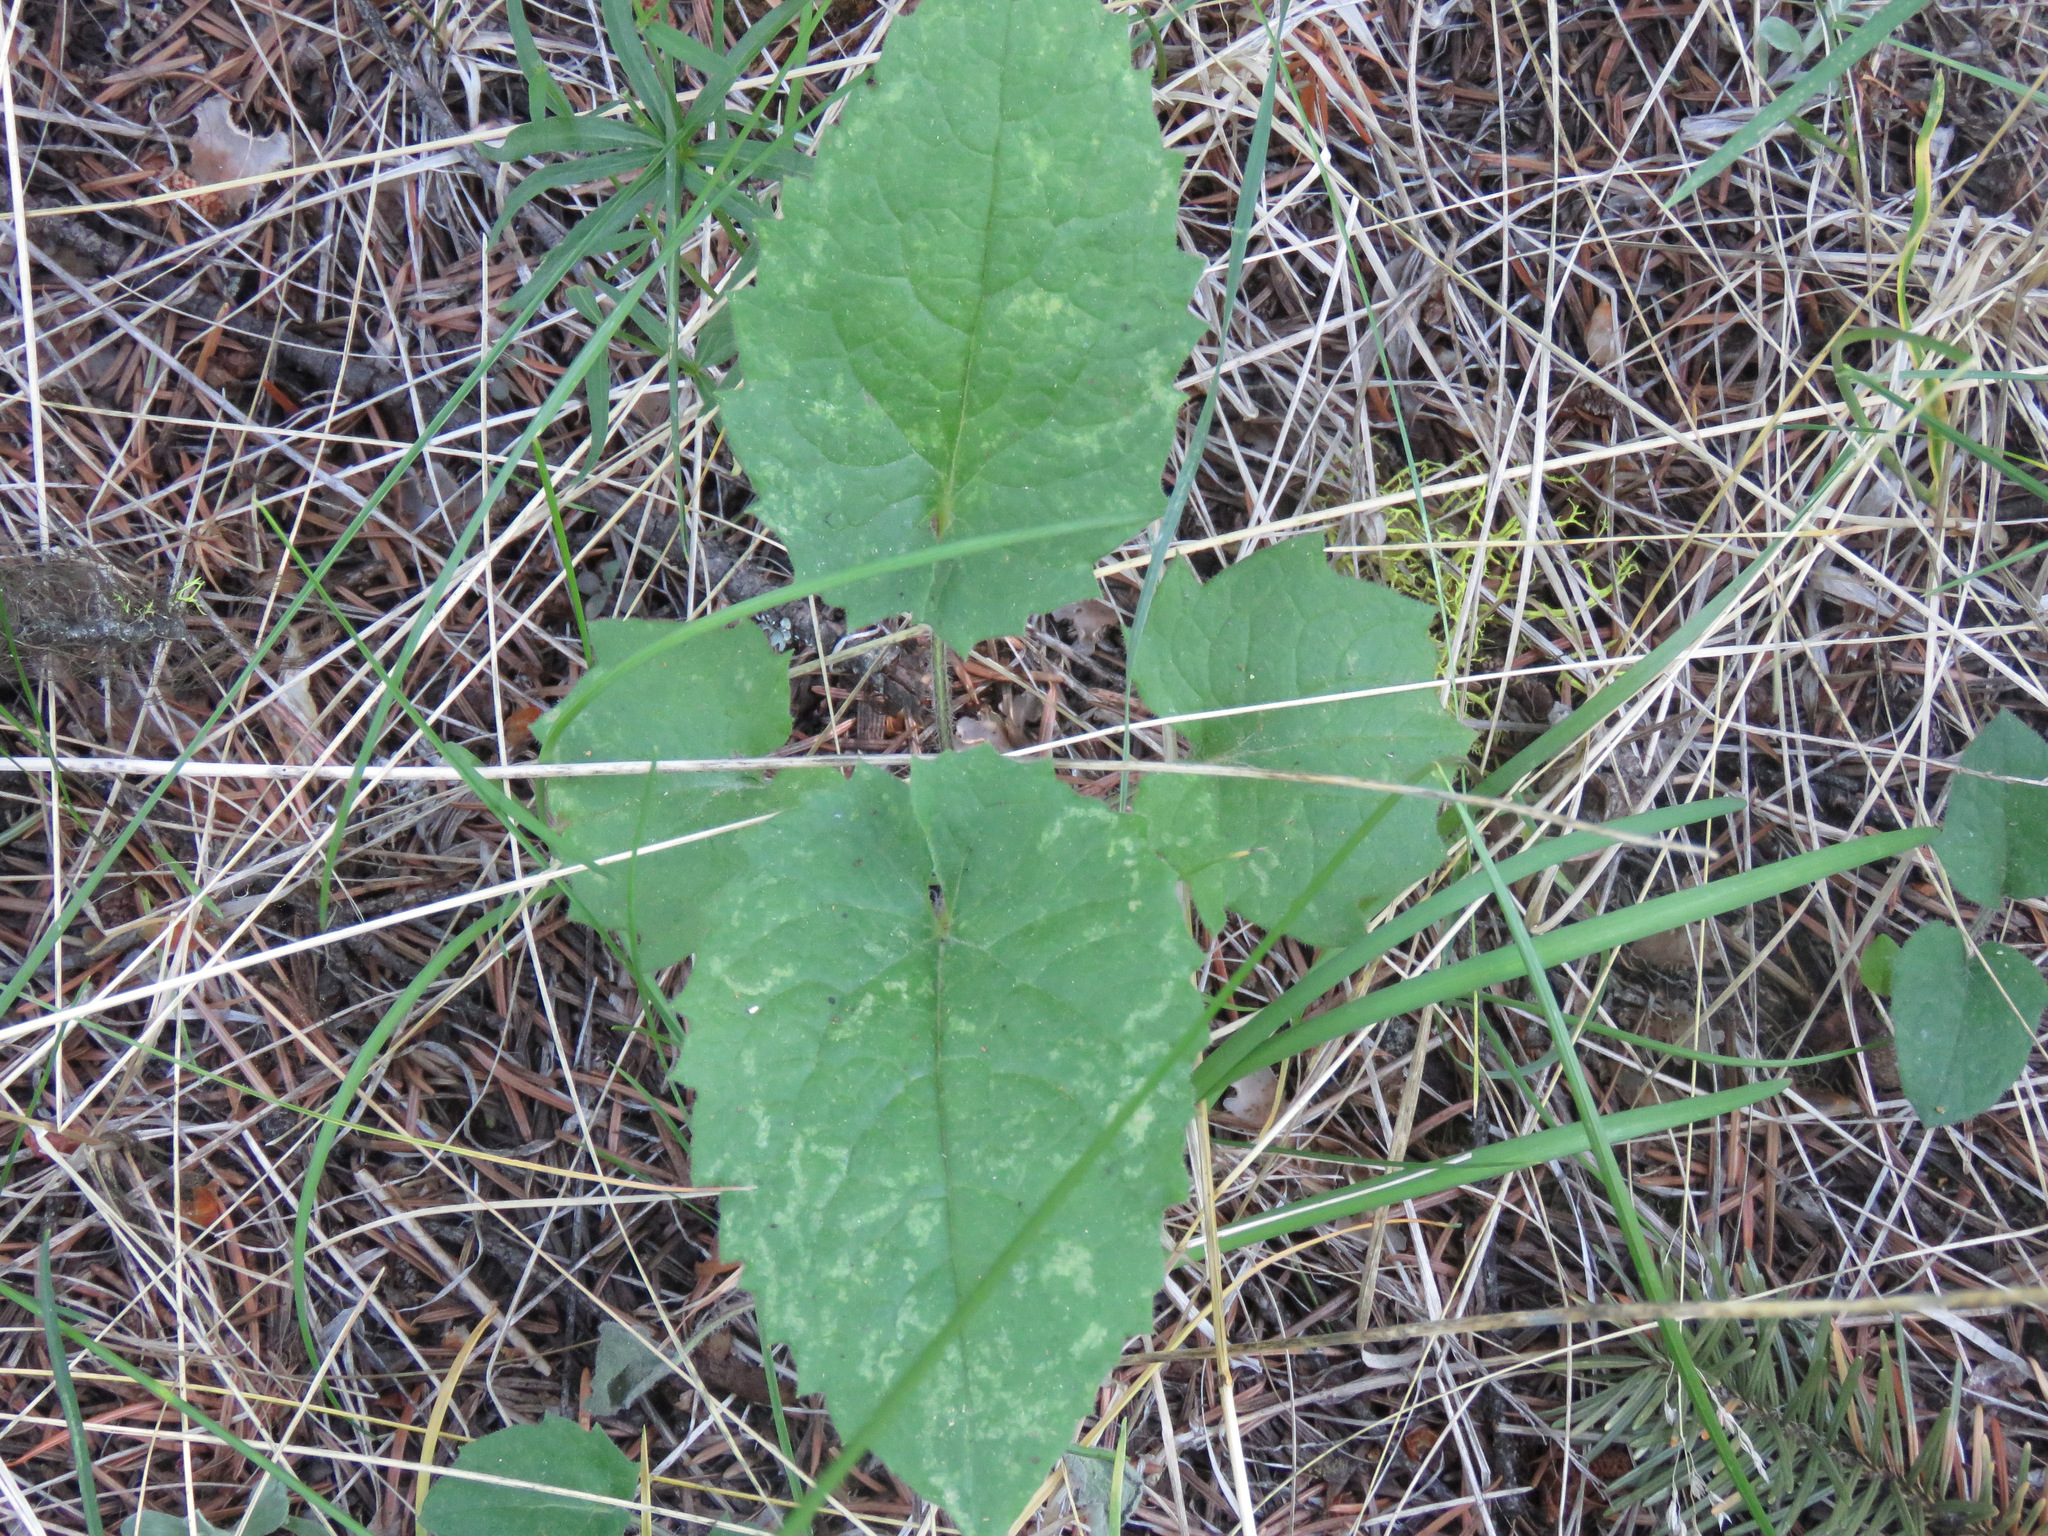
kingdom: Plantae
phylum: Tracheophyta
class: Magnoliopsida
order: Asterales
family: Asteraceae
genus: Arnica
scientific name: Arnica cordifolia
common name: Heart-leaf arnica
